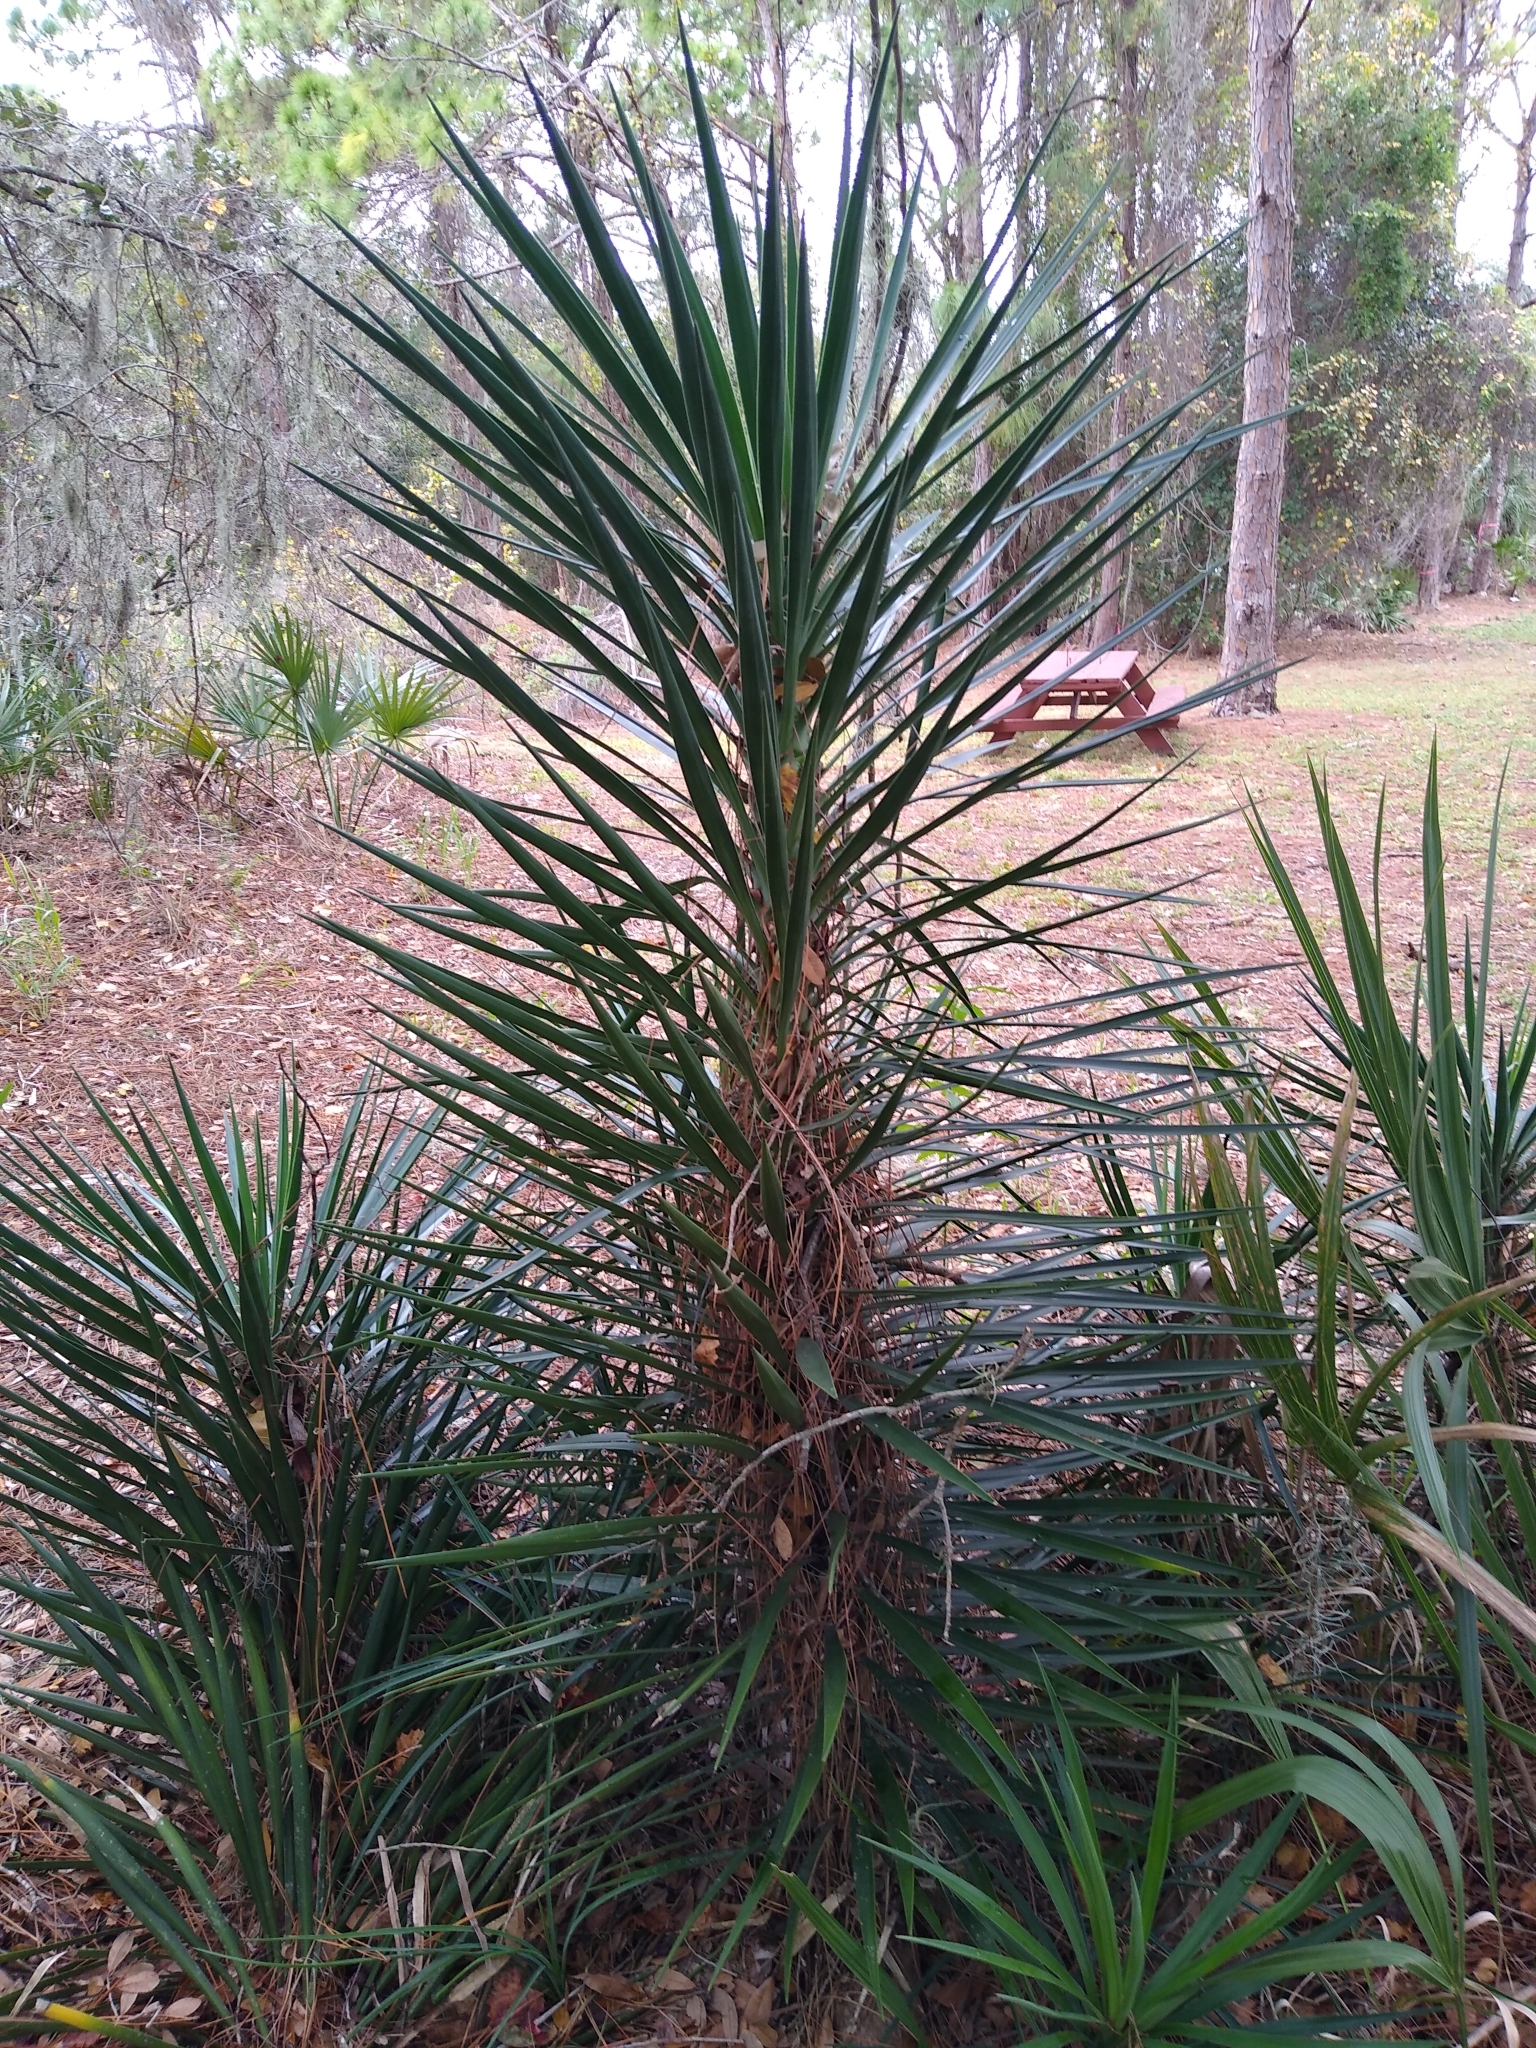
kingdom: Plantae
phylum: Tracheophyta
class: Liliopsida
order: Asparagales
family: Asparagaceae
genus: Yucca
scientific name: Yucca aloifolia
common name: Aloe yucca
